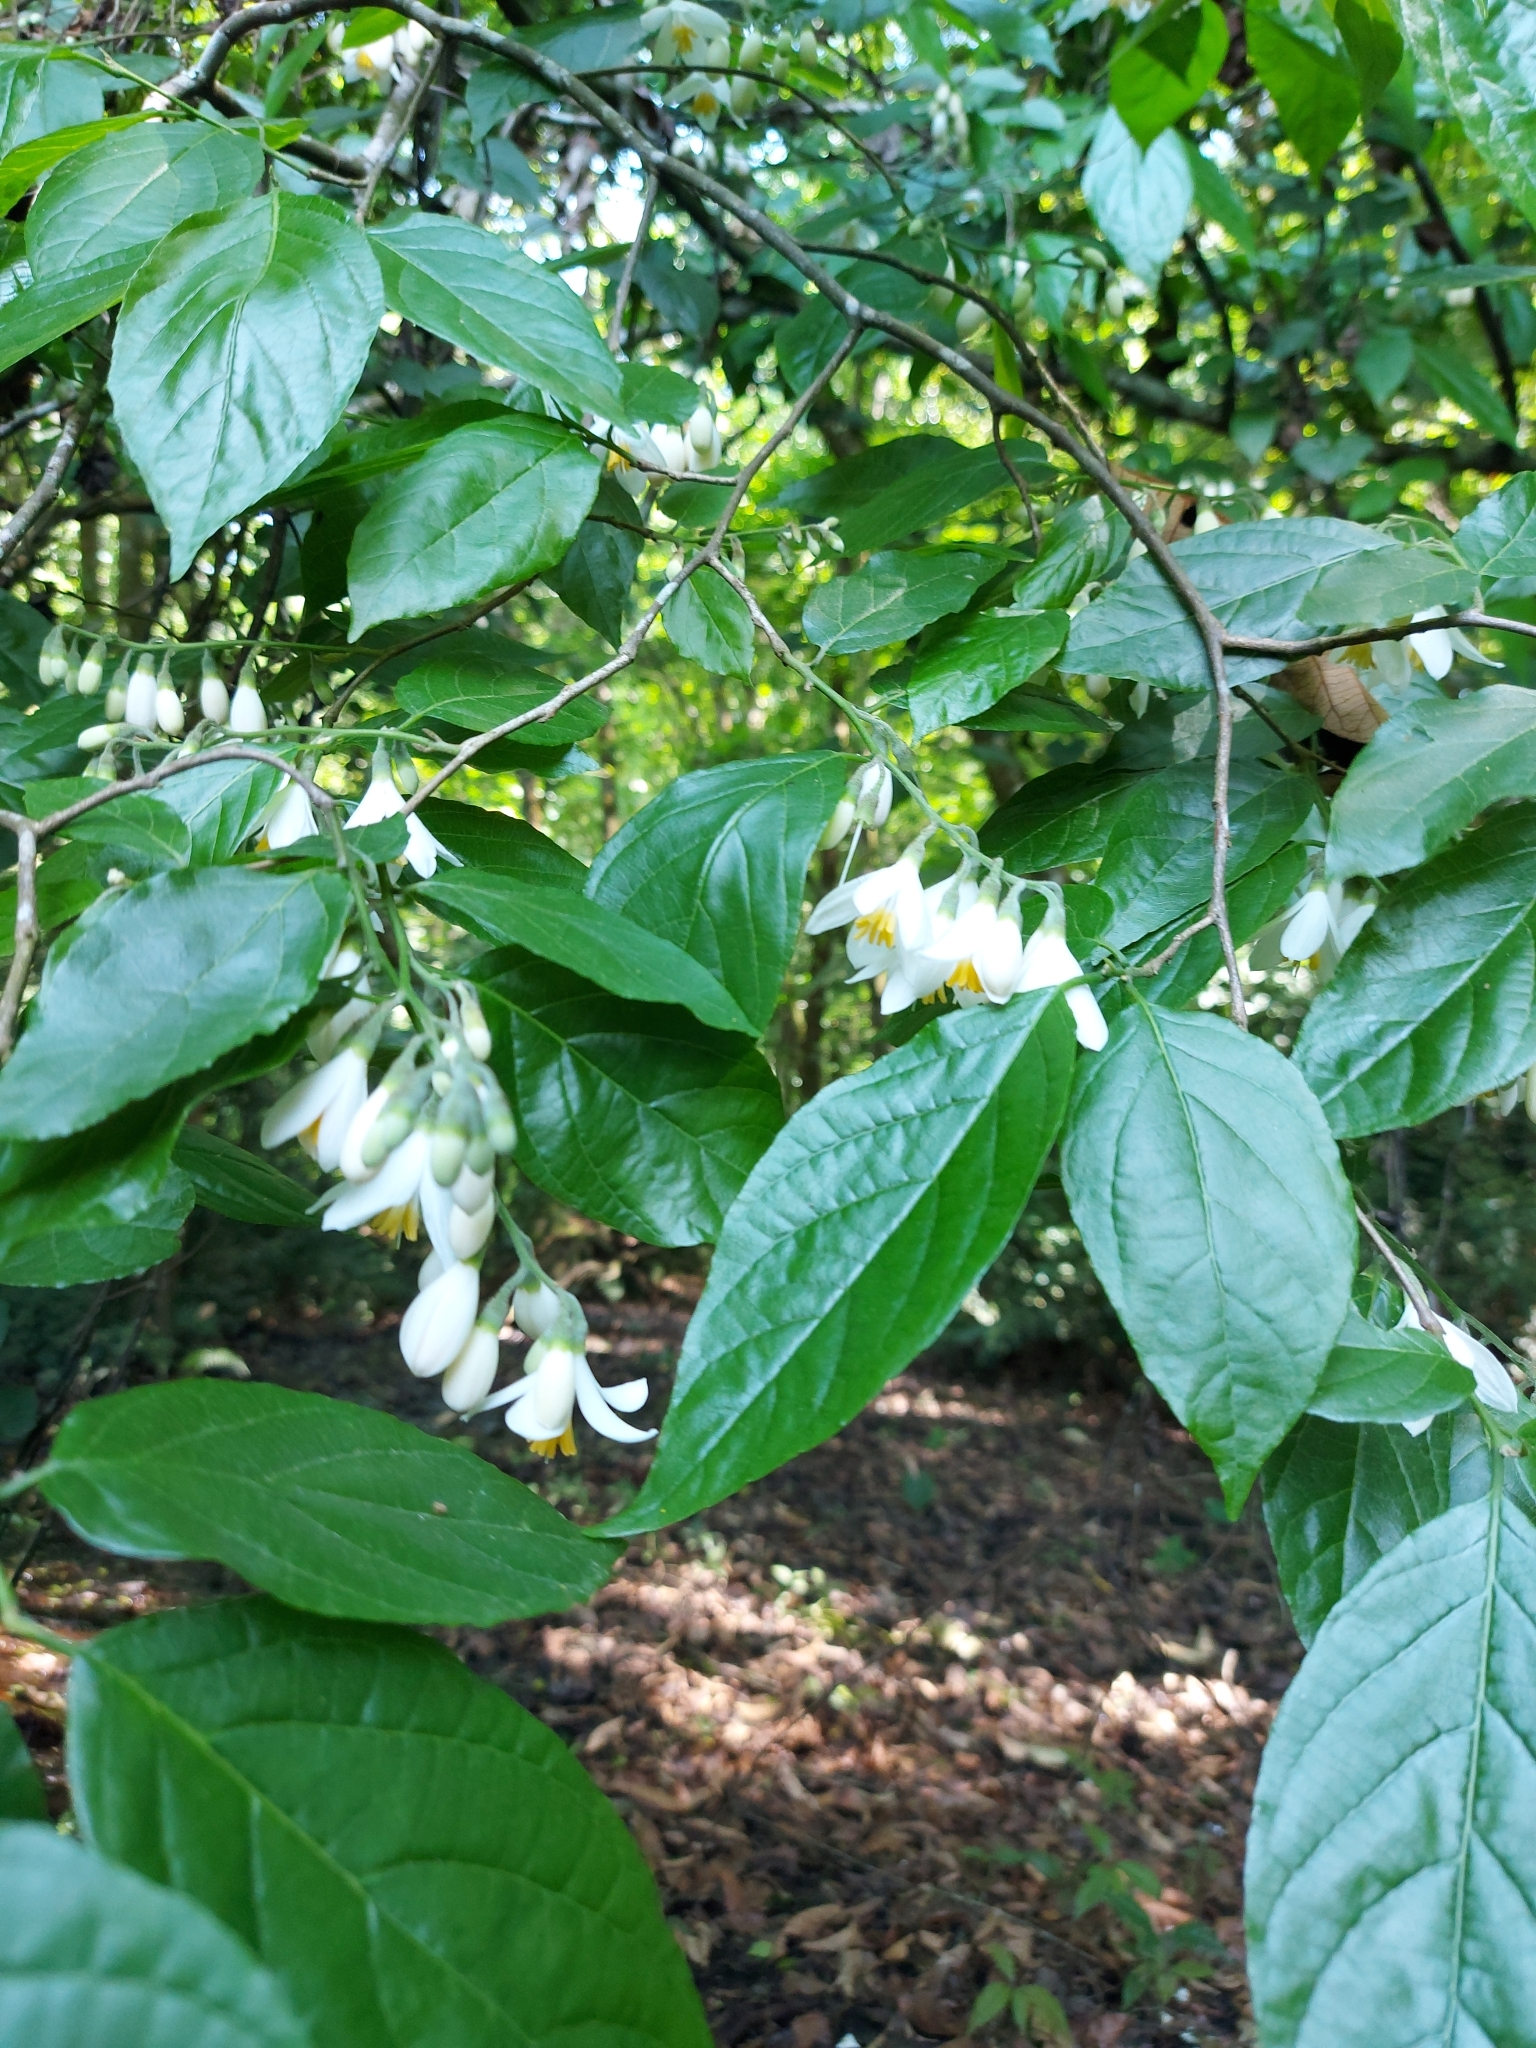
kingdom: Plantae
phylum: Tracheophyta
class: Magnoliopsida
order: Ericales
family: Styracaceae
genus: Styrax
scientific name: Styrax glabrescens
